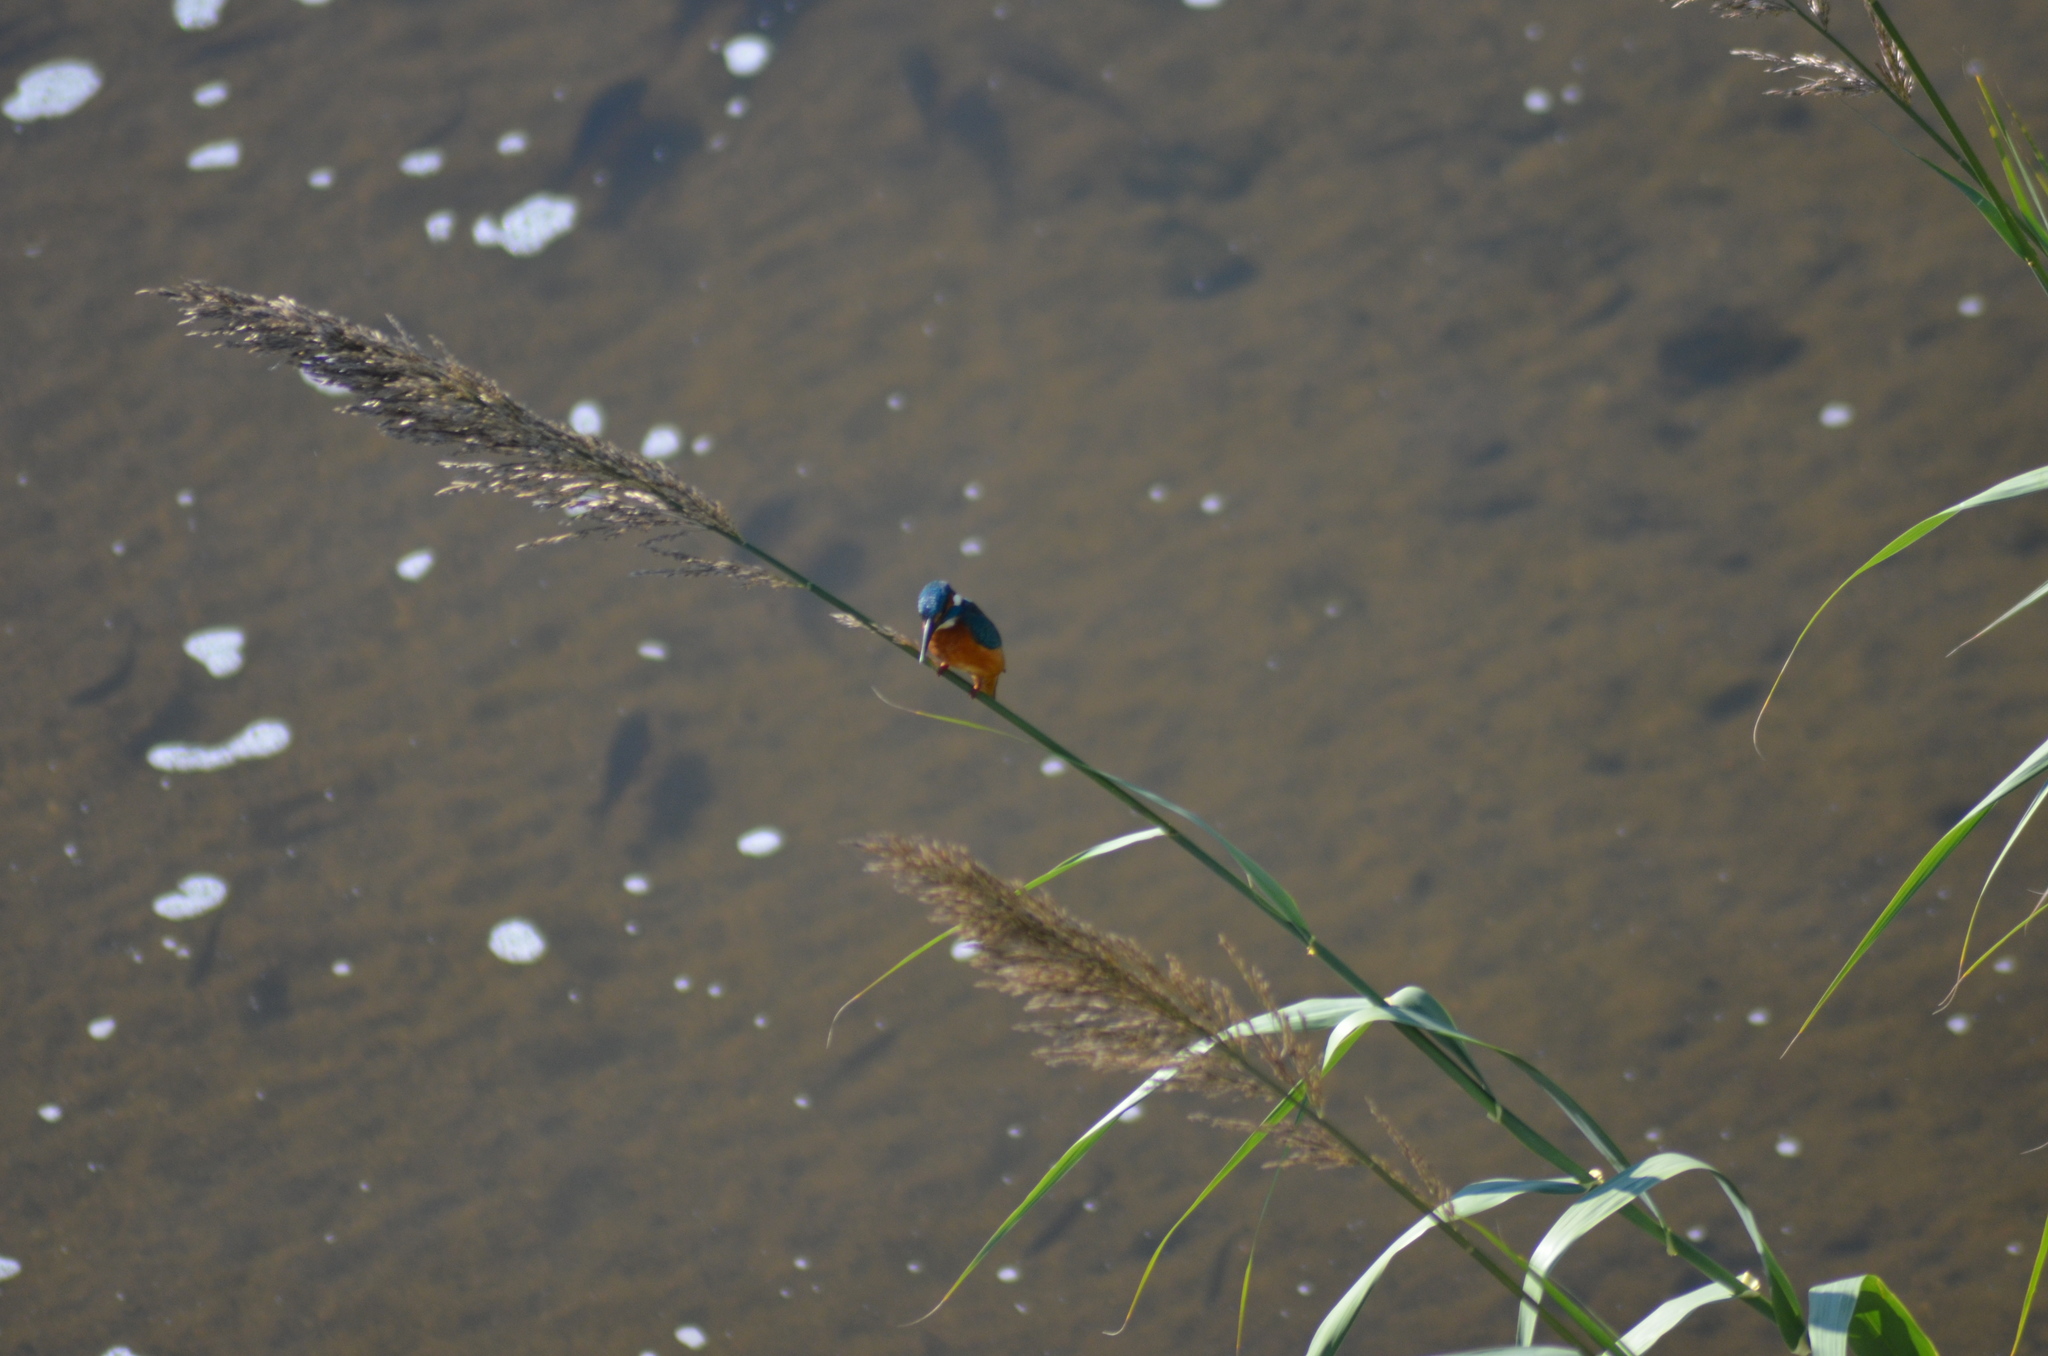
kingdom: Animalia
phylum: Chordata
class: Aves
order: Coraciiformes
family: Alcedinidae
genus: Alcedo
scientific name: Alcedo atthis
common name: Common kingfisher
